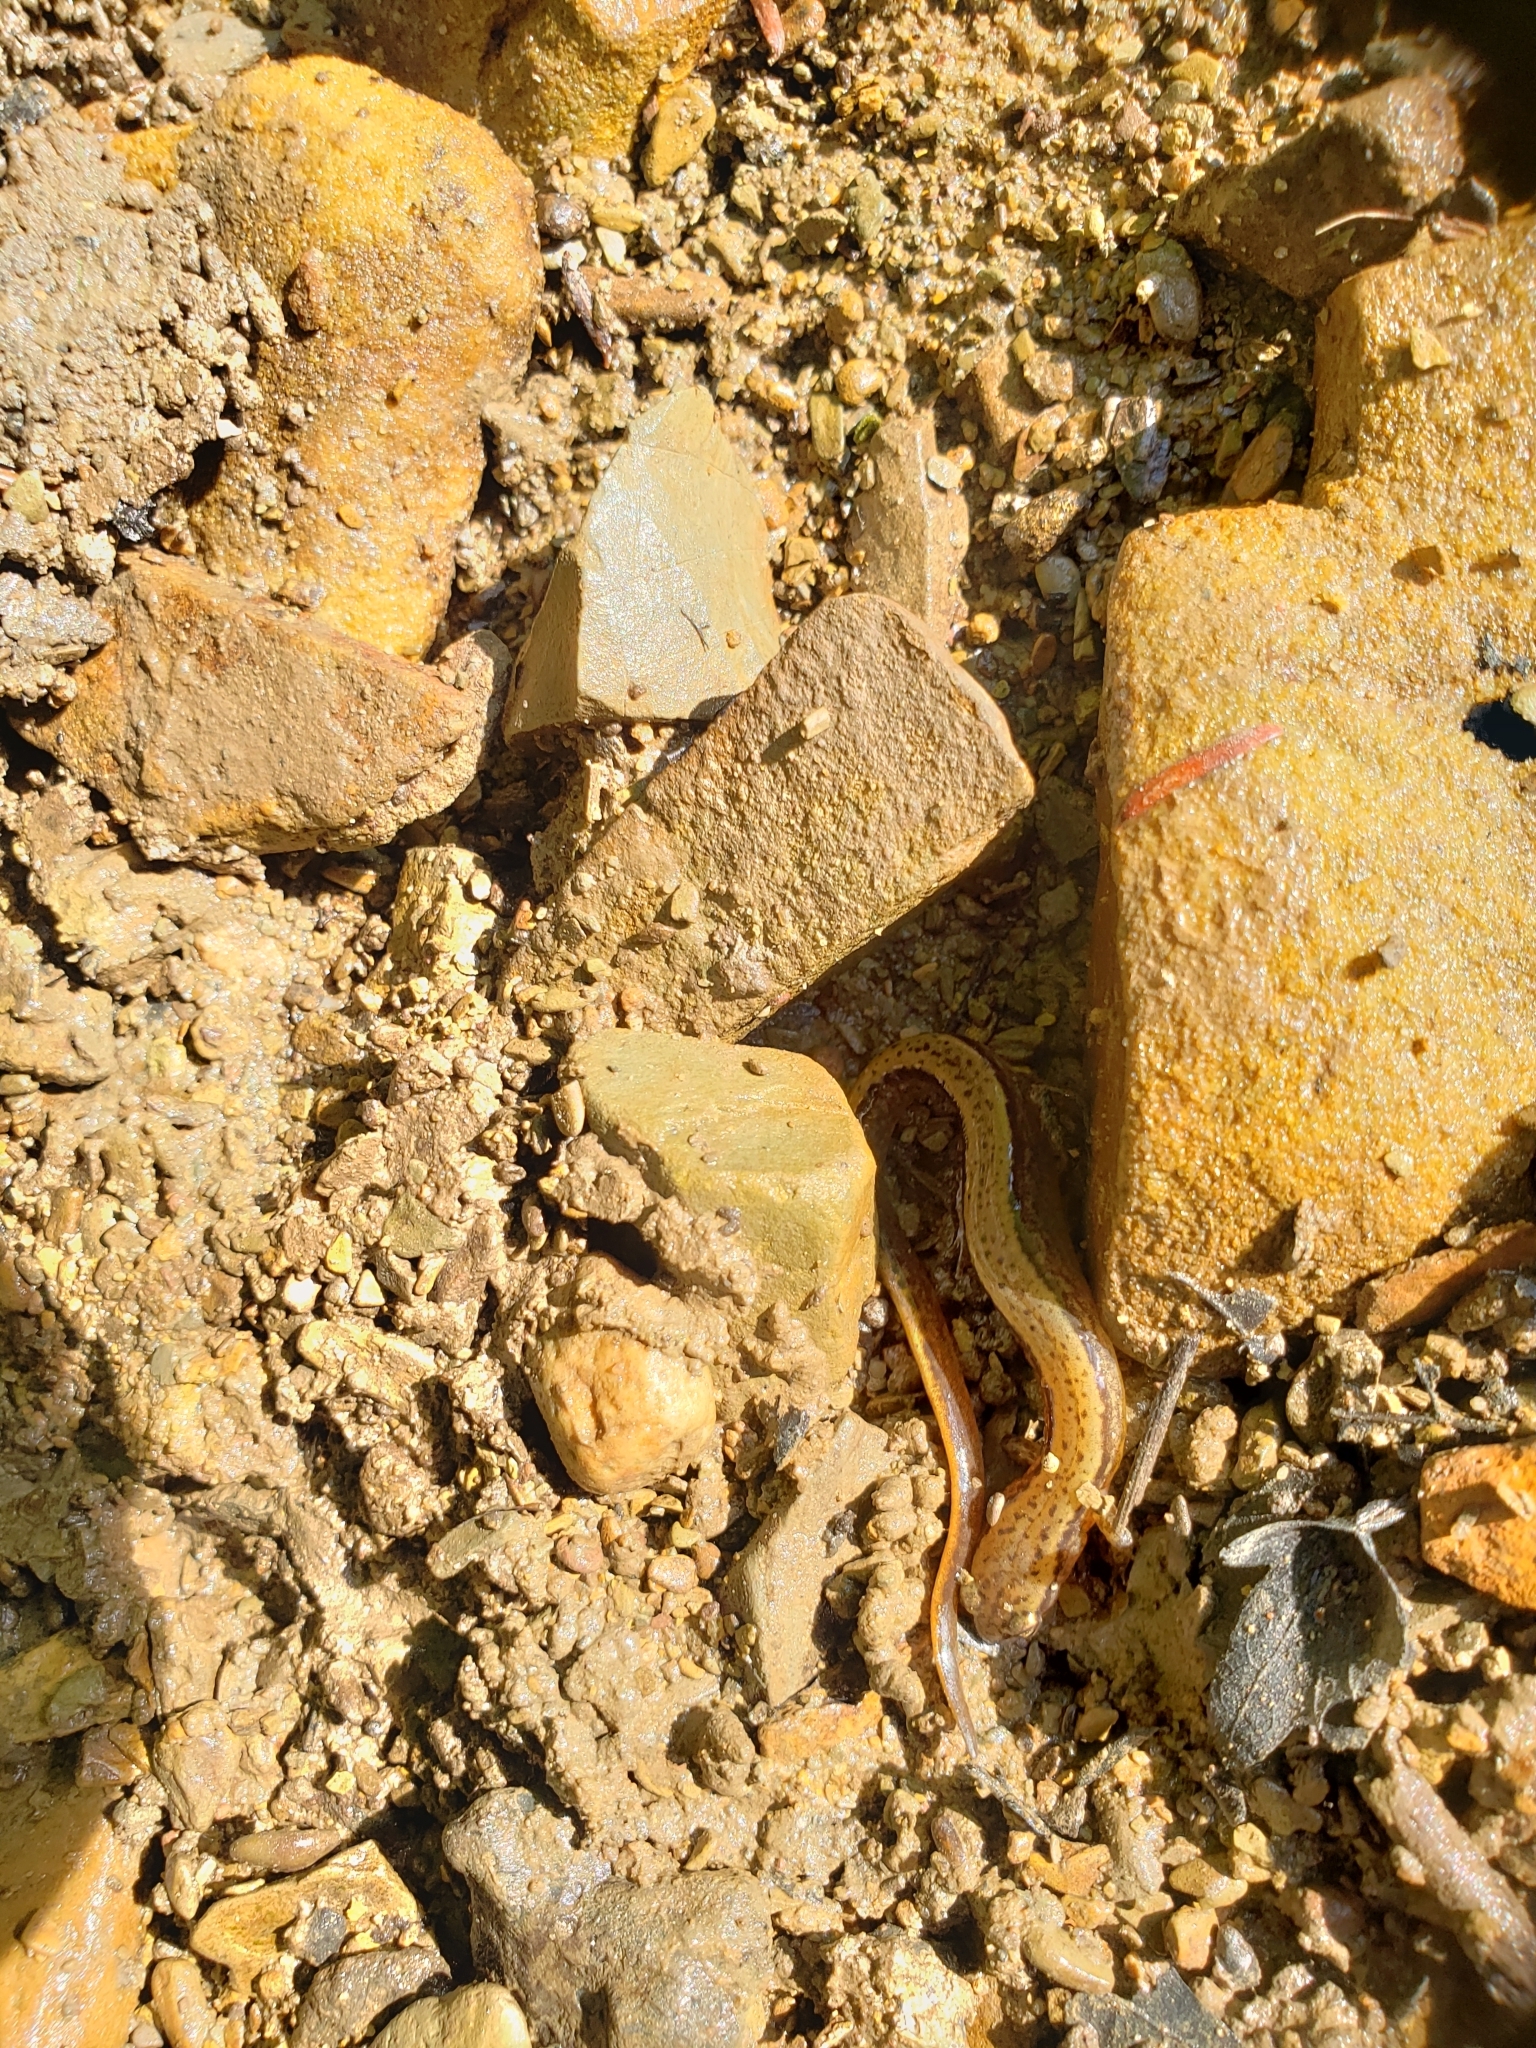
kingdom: Animalia
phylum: Chordata
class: Amphibia
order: Caudata
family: Plethodontidae
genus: Eurycea
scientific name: Eurycea bislineata
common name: Northern two-lined salamander
